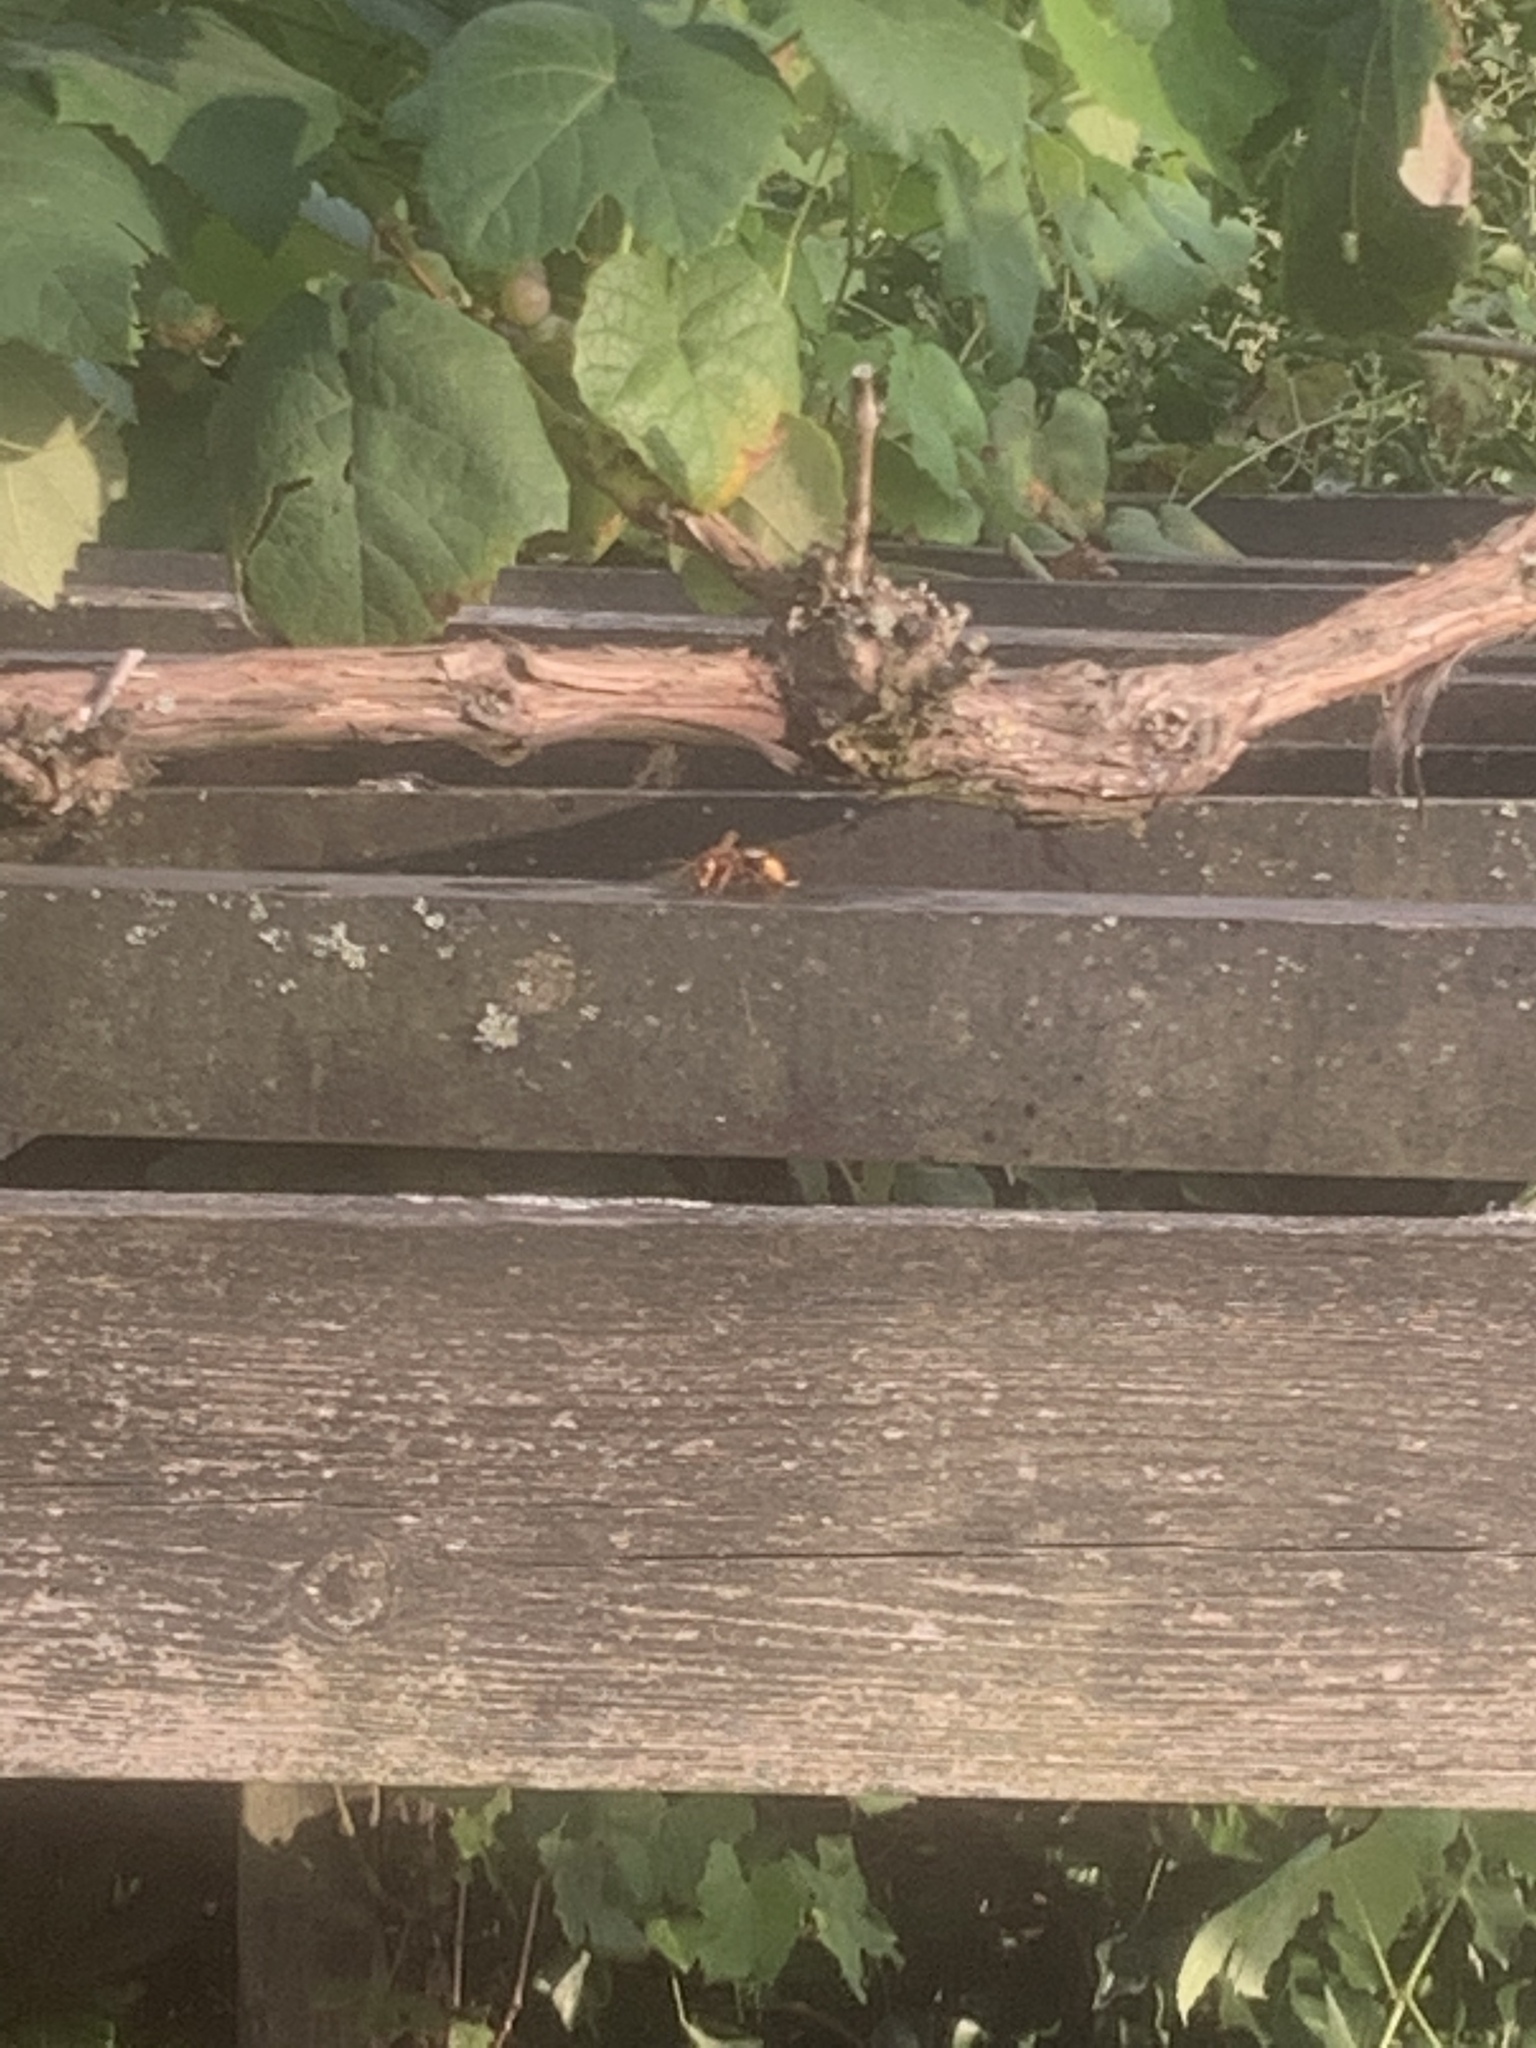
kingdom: Animalia
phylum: Arthropoda
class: Insecta
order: Hymenoptera
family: Vespidae
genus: Vespa
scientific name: Vespa crabro
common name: Hornet
